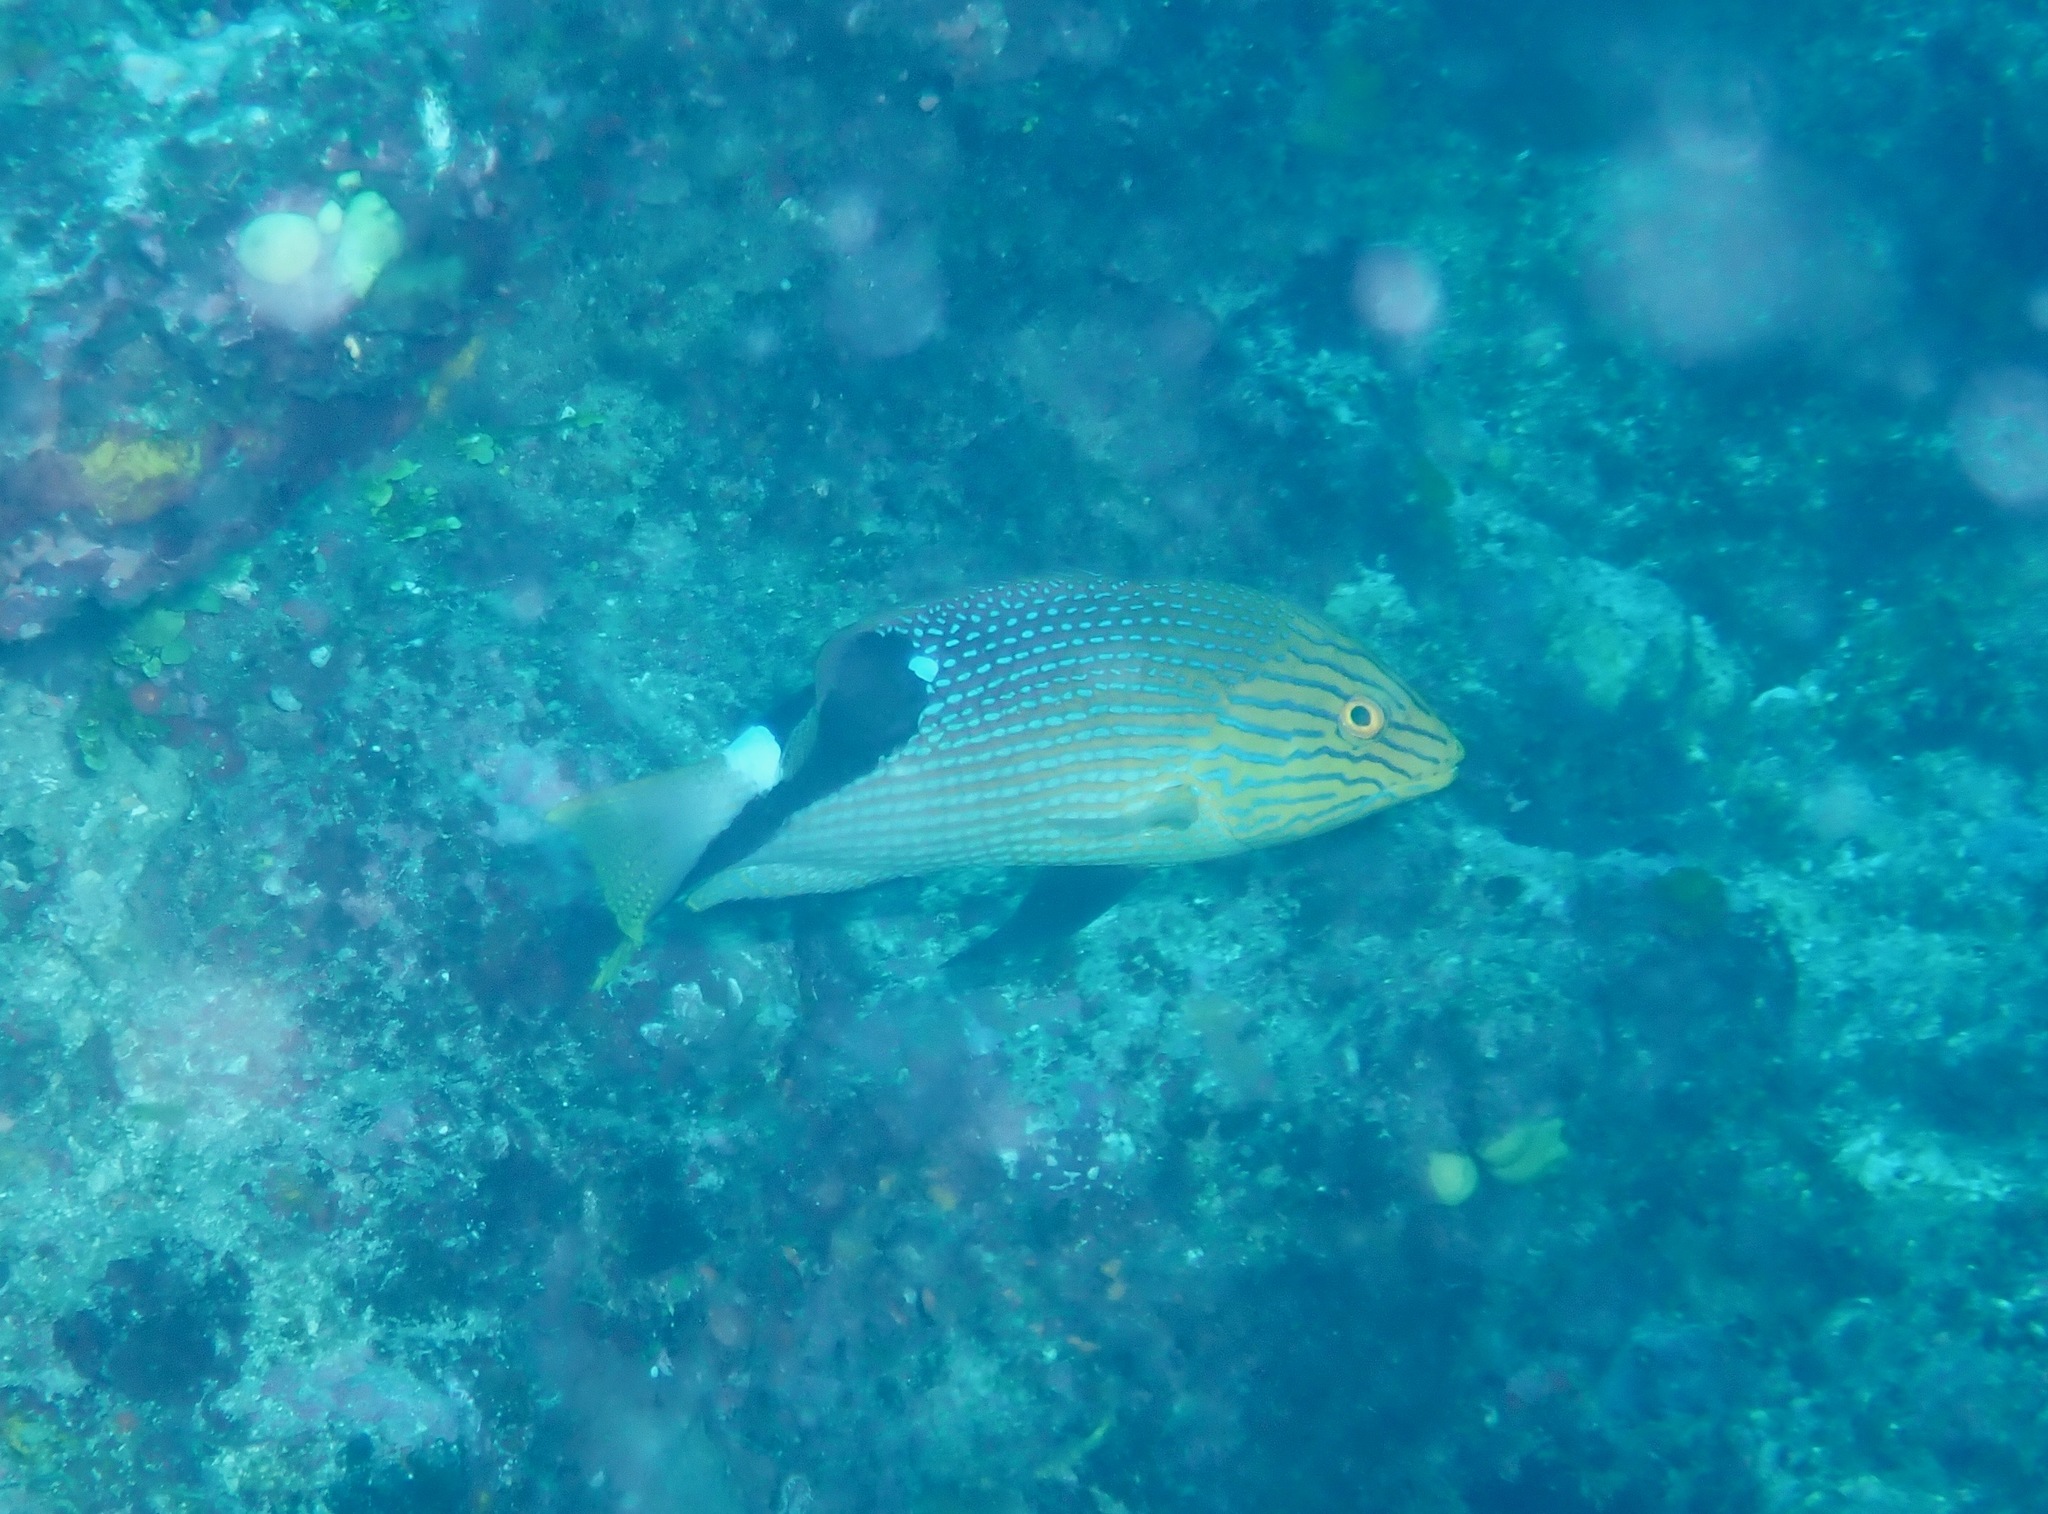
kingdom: Animalia
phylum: Chordata
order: Perciformes
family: Labridae
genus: Bodianus
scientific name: Bodianus loxozonus
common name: Blackfin hogfish
